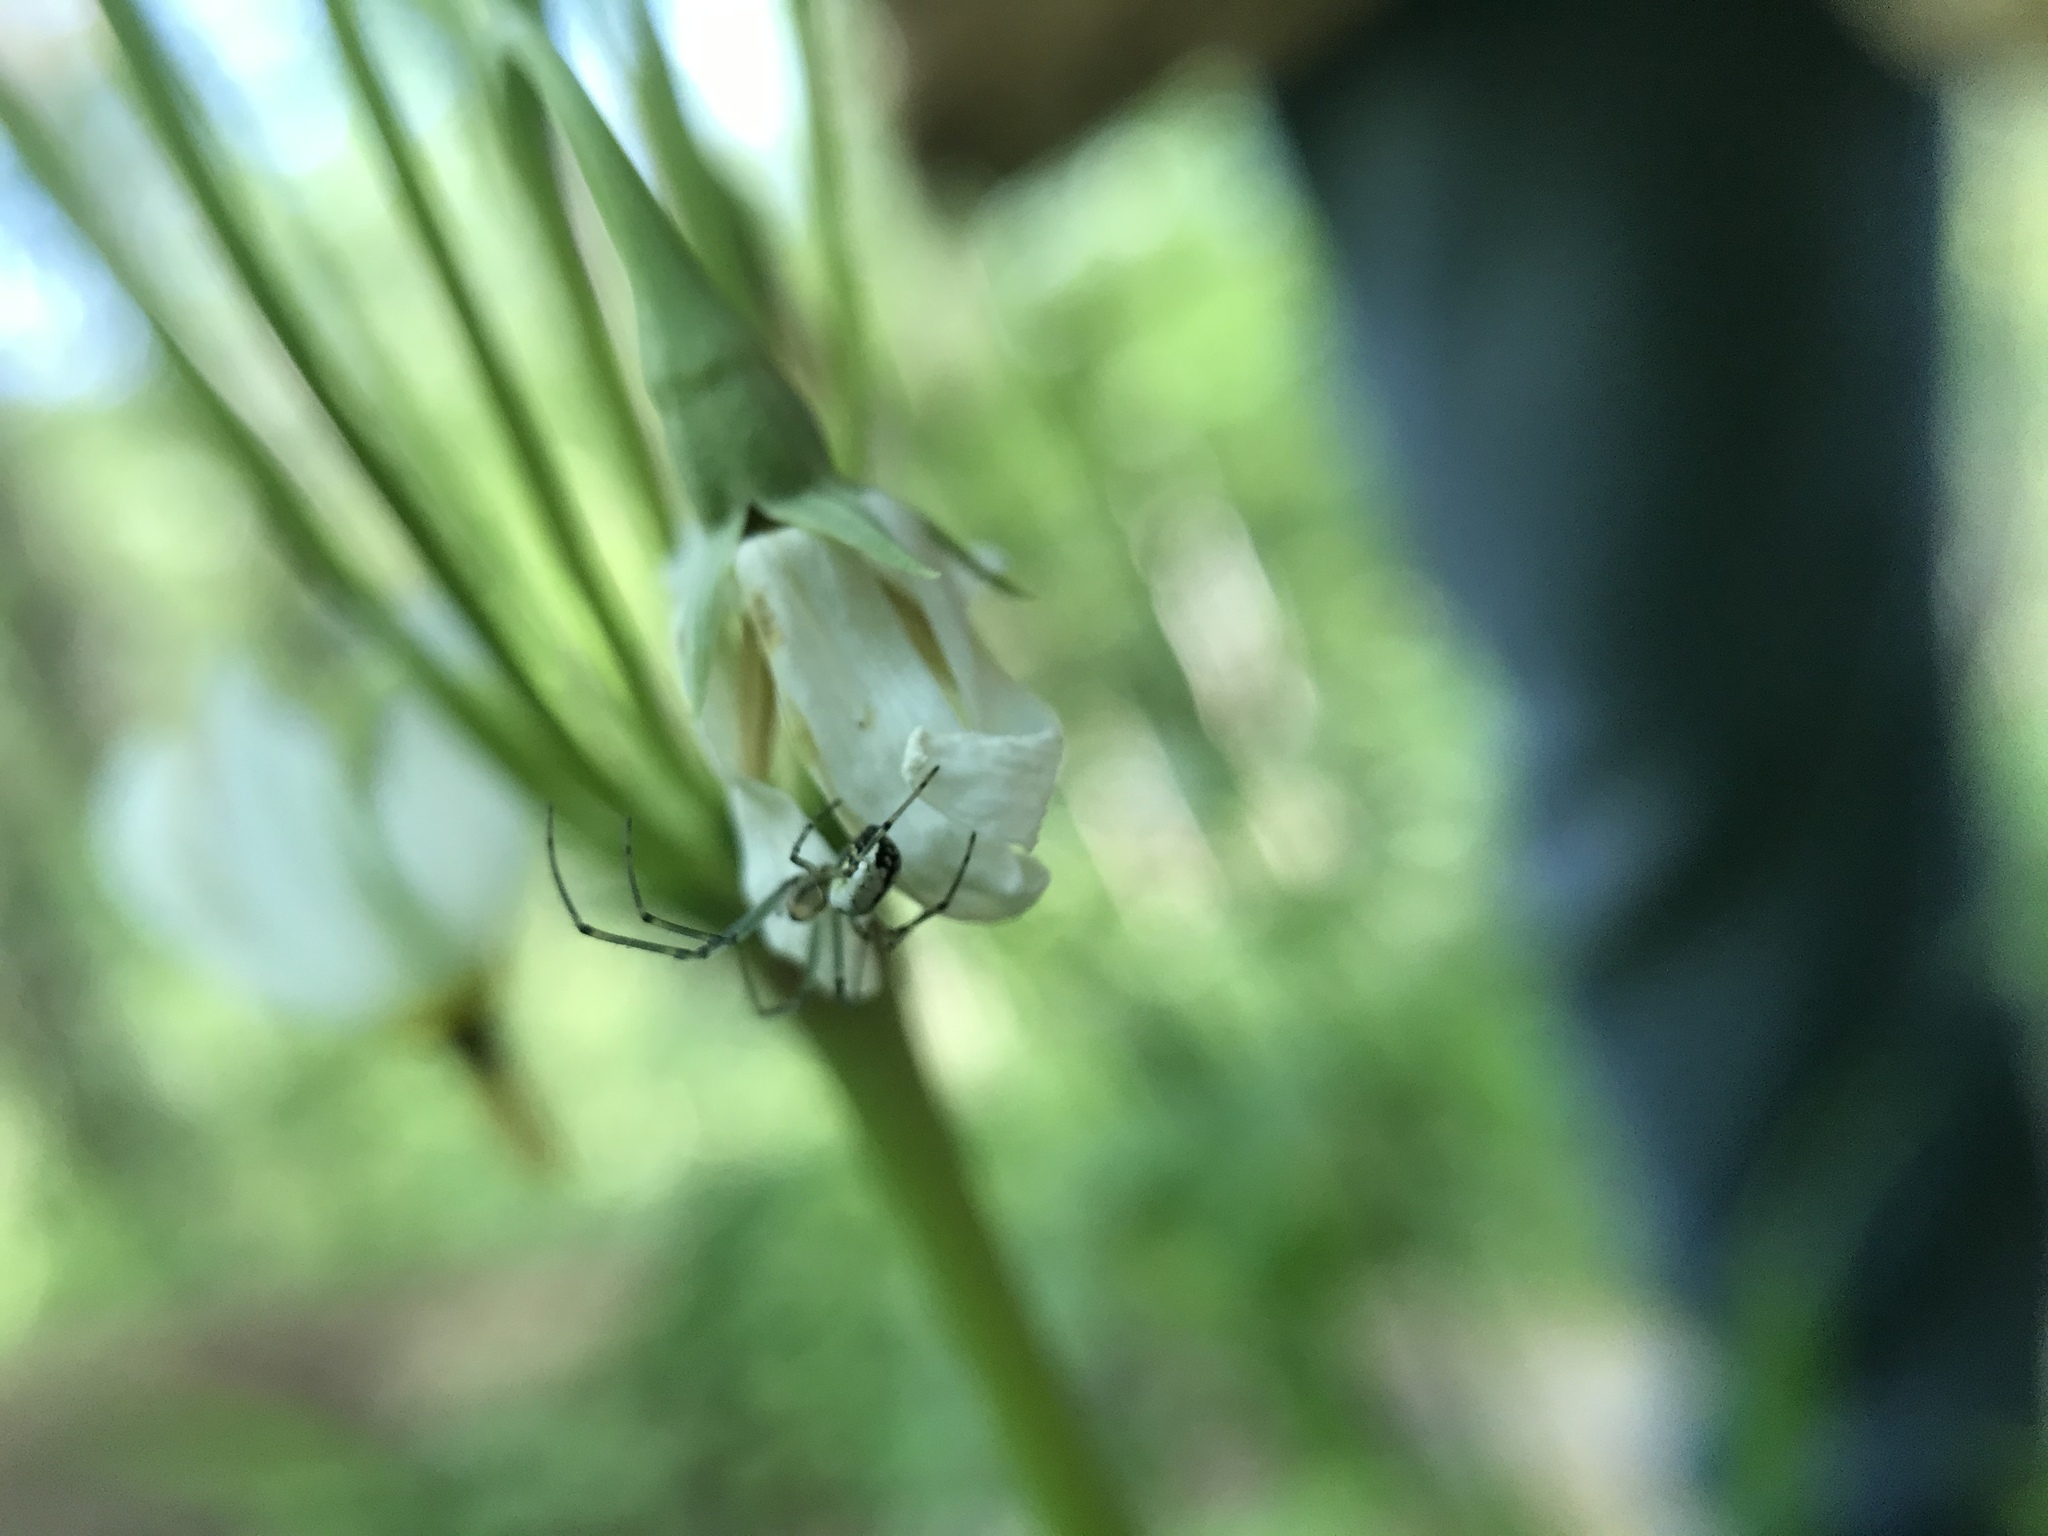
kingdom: Animalia
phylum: Arthropoda
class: Arachnida
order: Araneae
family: Tetragnathidae
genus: Leucauge
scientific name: Leucauge venusta
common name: Longjawed orb weavers
